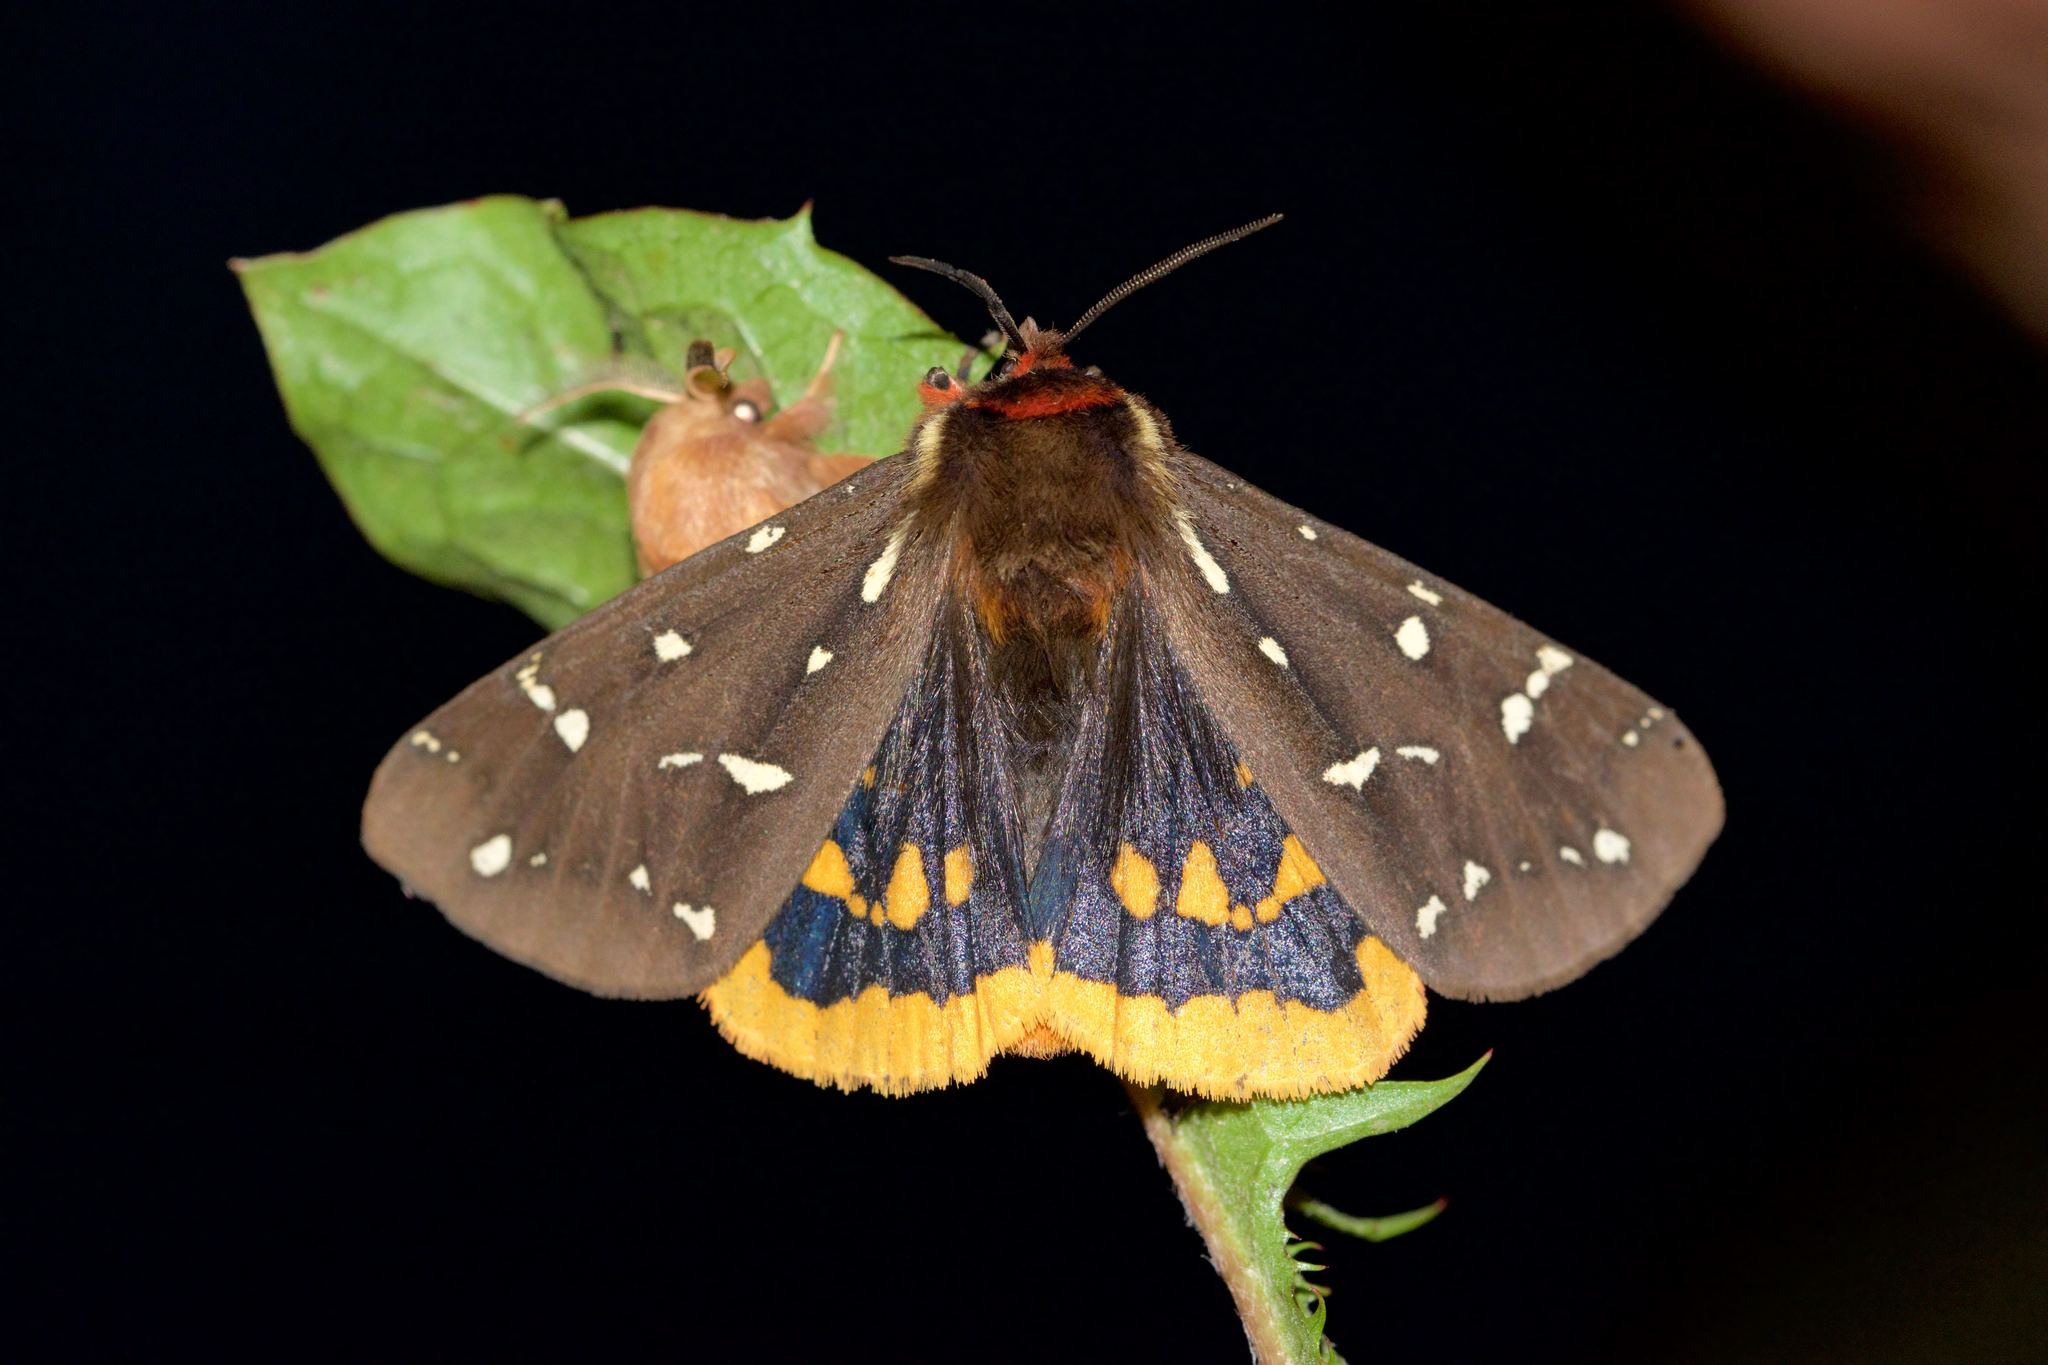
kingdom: Animalia
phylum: Arthropoda
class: Insecta
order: Lepidoptera
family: Erebidae
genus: Arctia
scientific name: Arctia parthenos
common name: St. lawrence tiger moth
